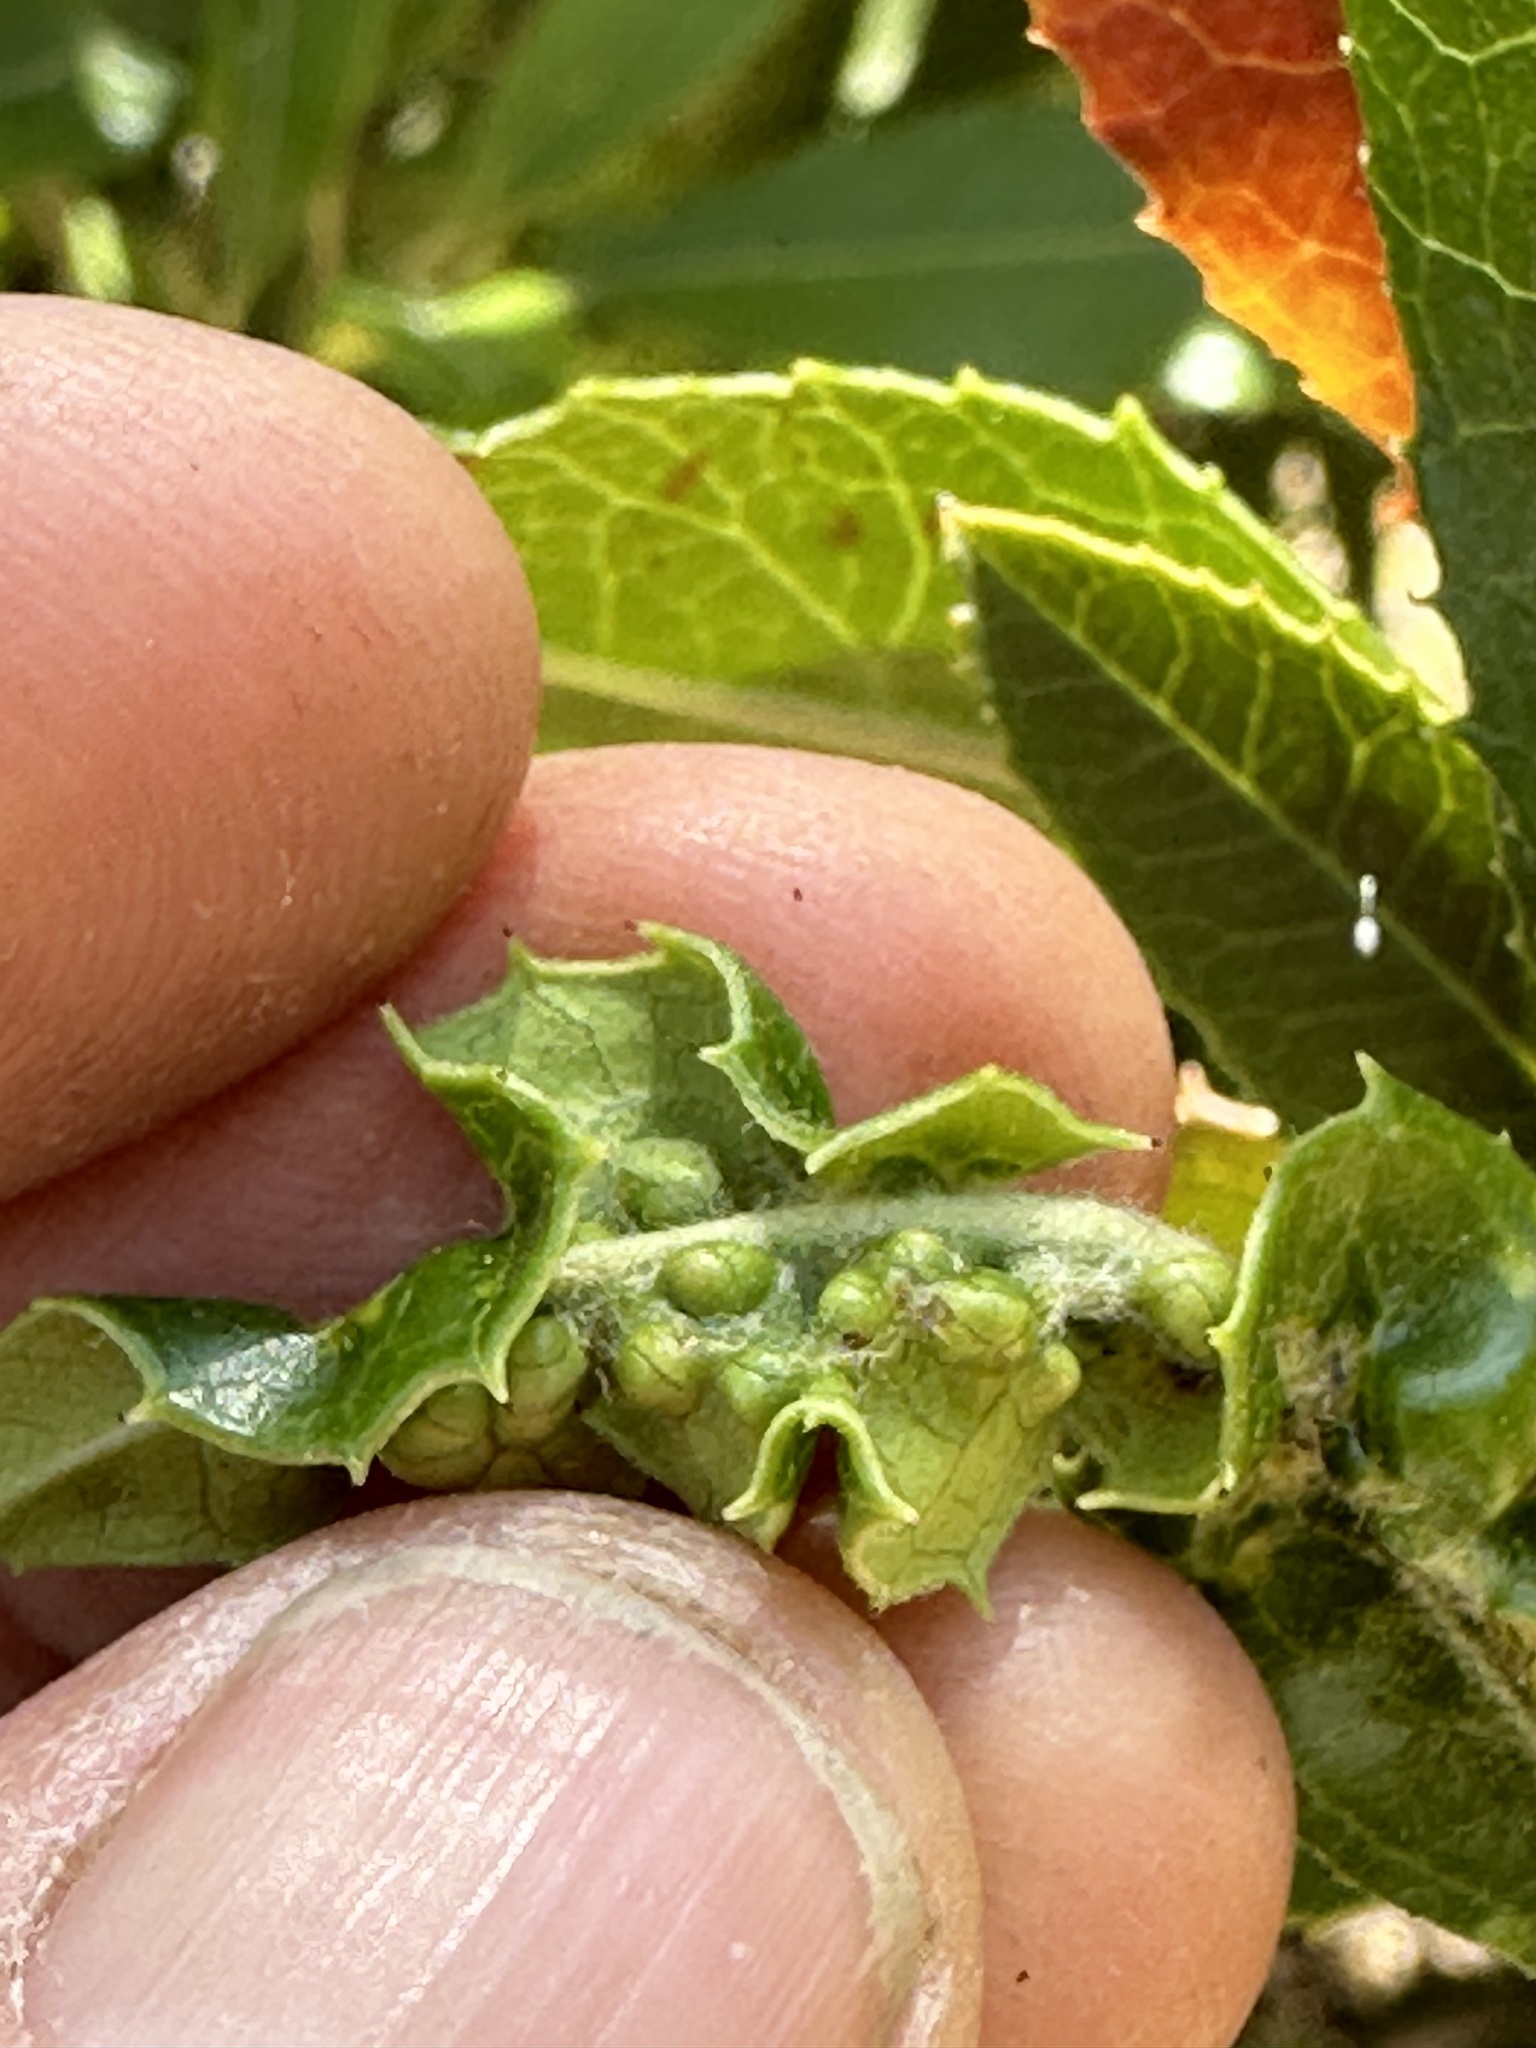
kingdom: Animalia
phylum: Arthropoda
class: Insecta
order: Thysanoptera
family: Phlaeothripidae
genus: Liothrips
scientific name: Liothrips ilex
